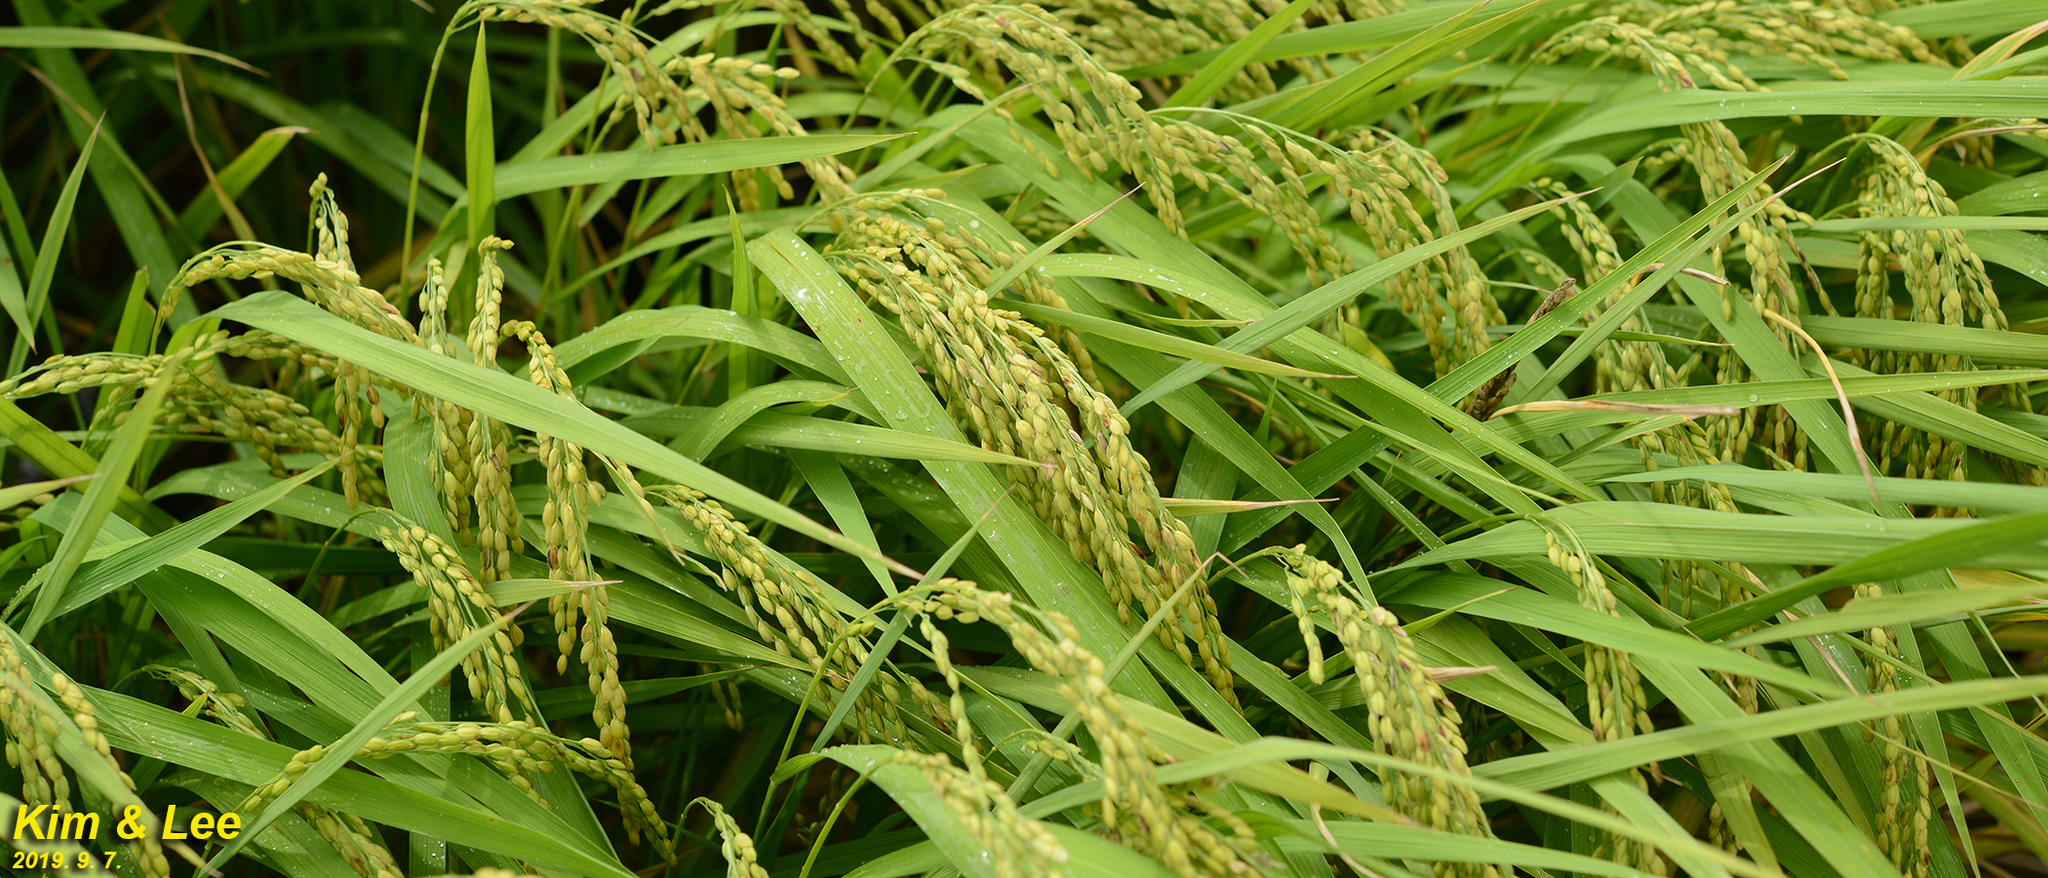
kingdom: Plantae
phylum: Tracheophyta
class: Liliopsida
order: Poales
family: Poaceae
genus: Oryza
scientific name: Oryza sativa
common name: Rice
